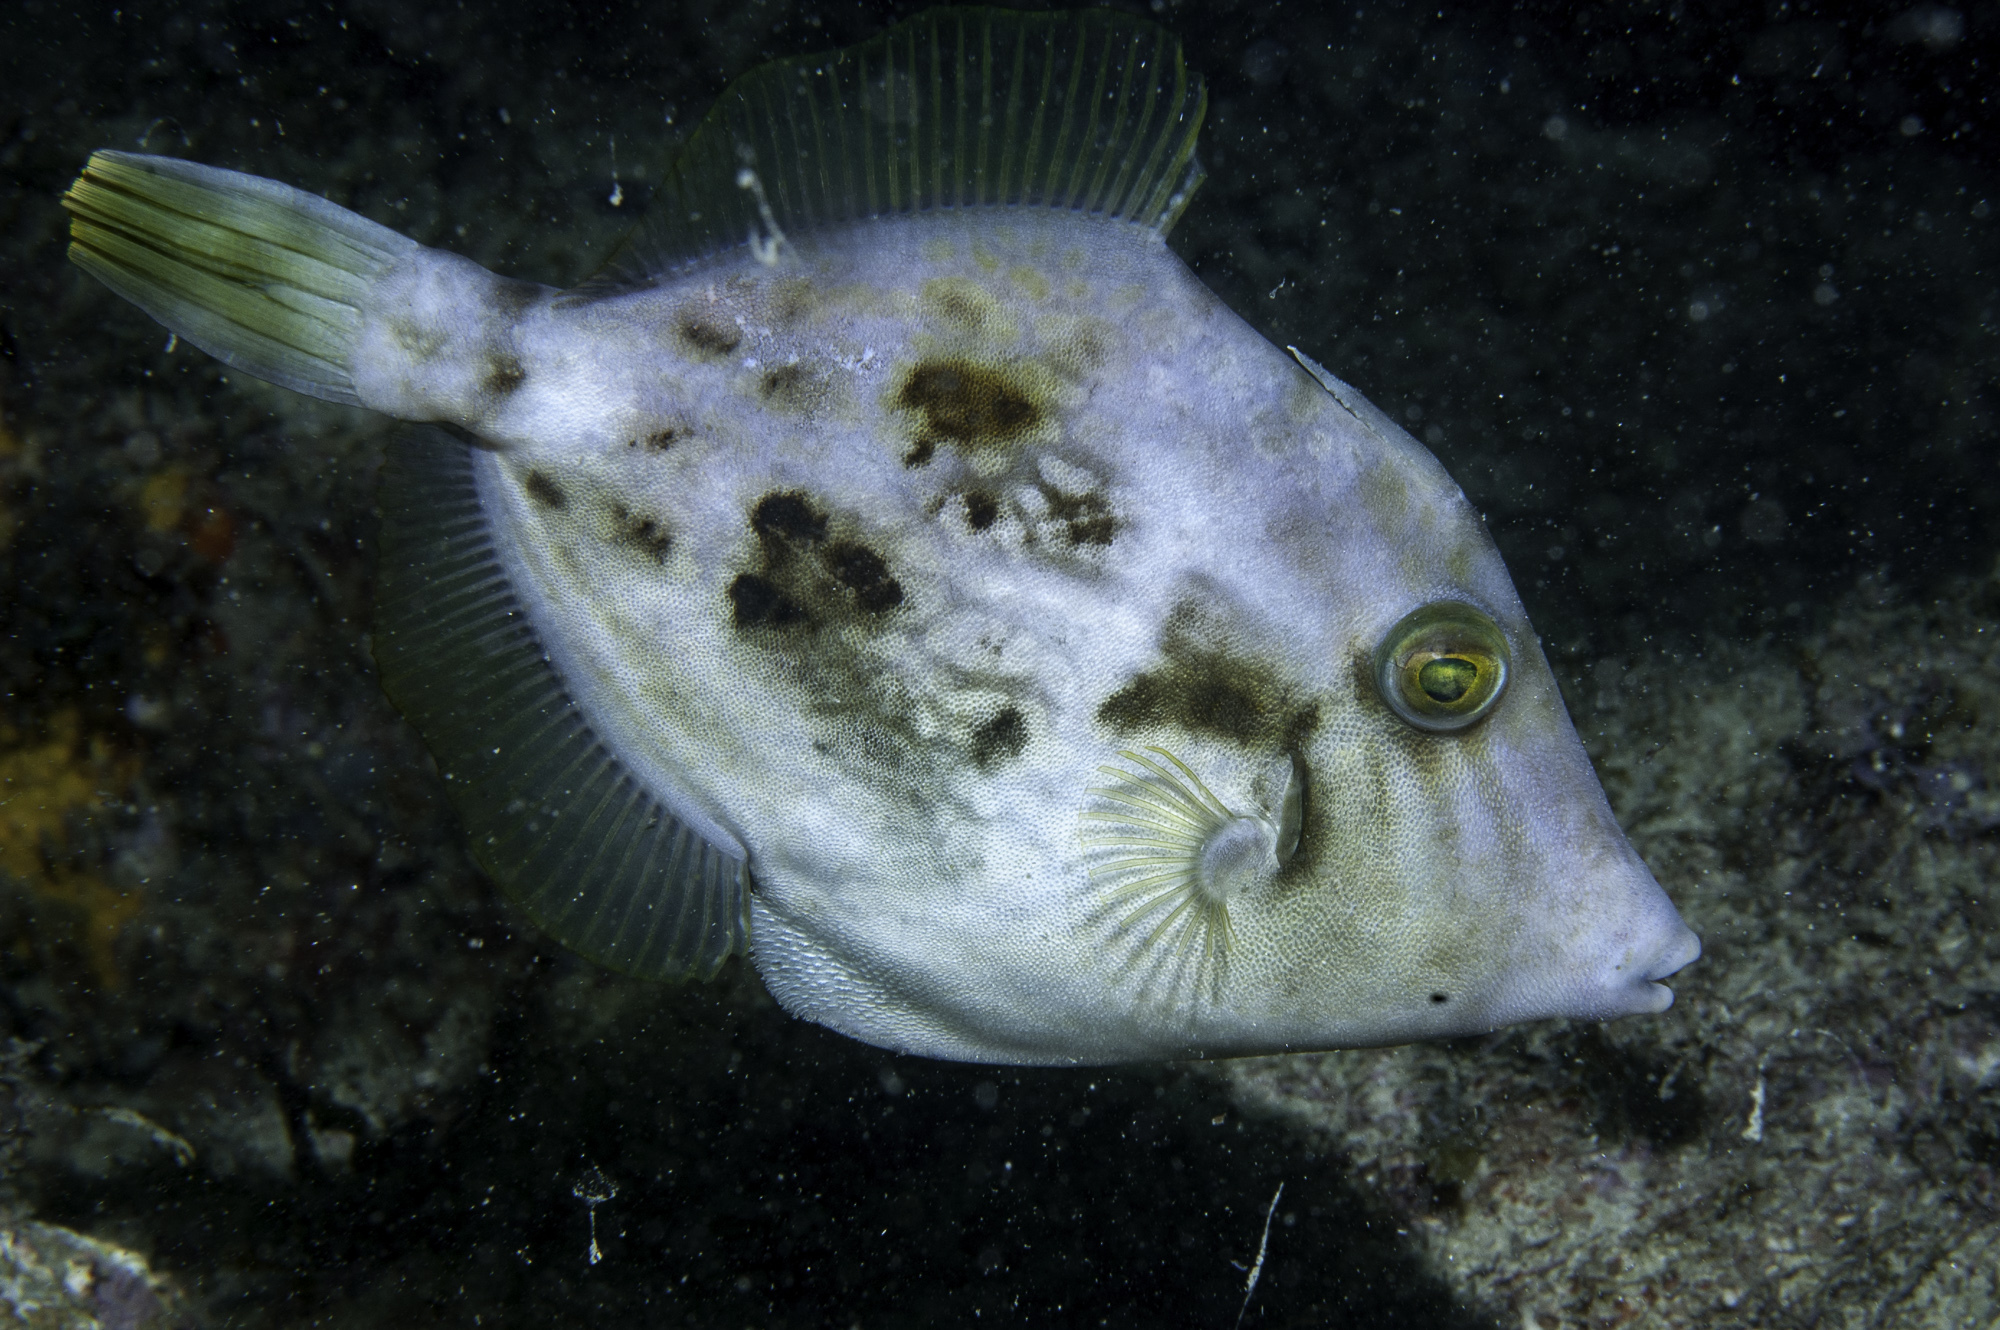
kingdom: Animalia
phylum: Chordata
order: Tetraodontiformes
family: Monacanthidae
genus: Stephanolepis
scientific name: Stephanolepis hispidus
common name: Planehead filefish
